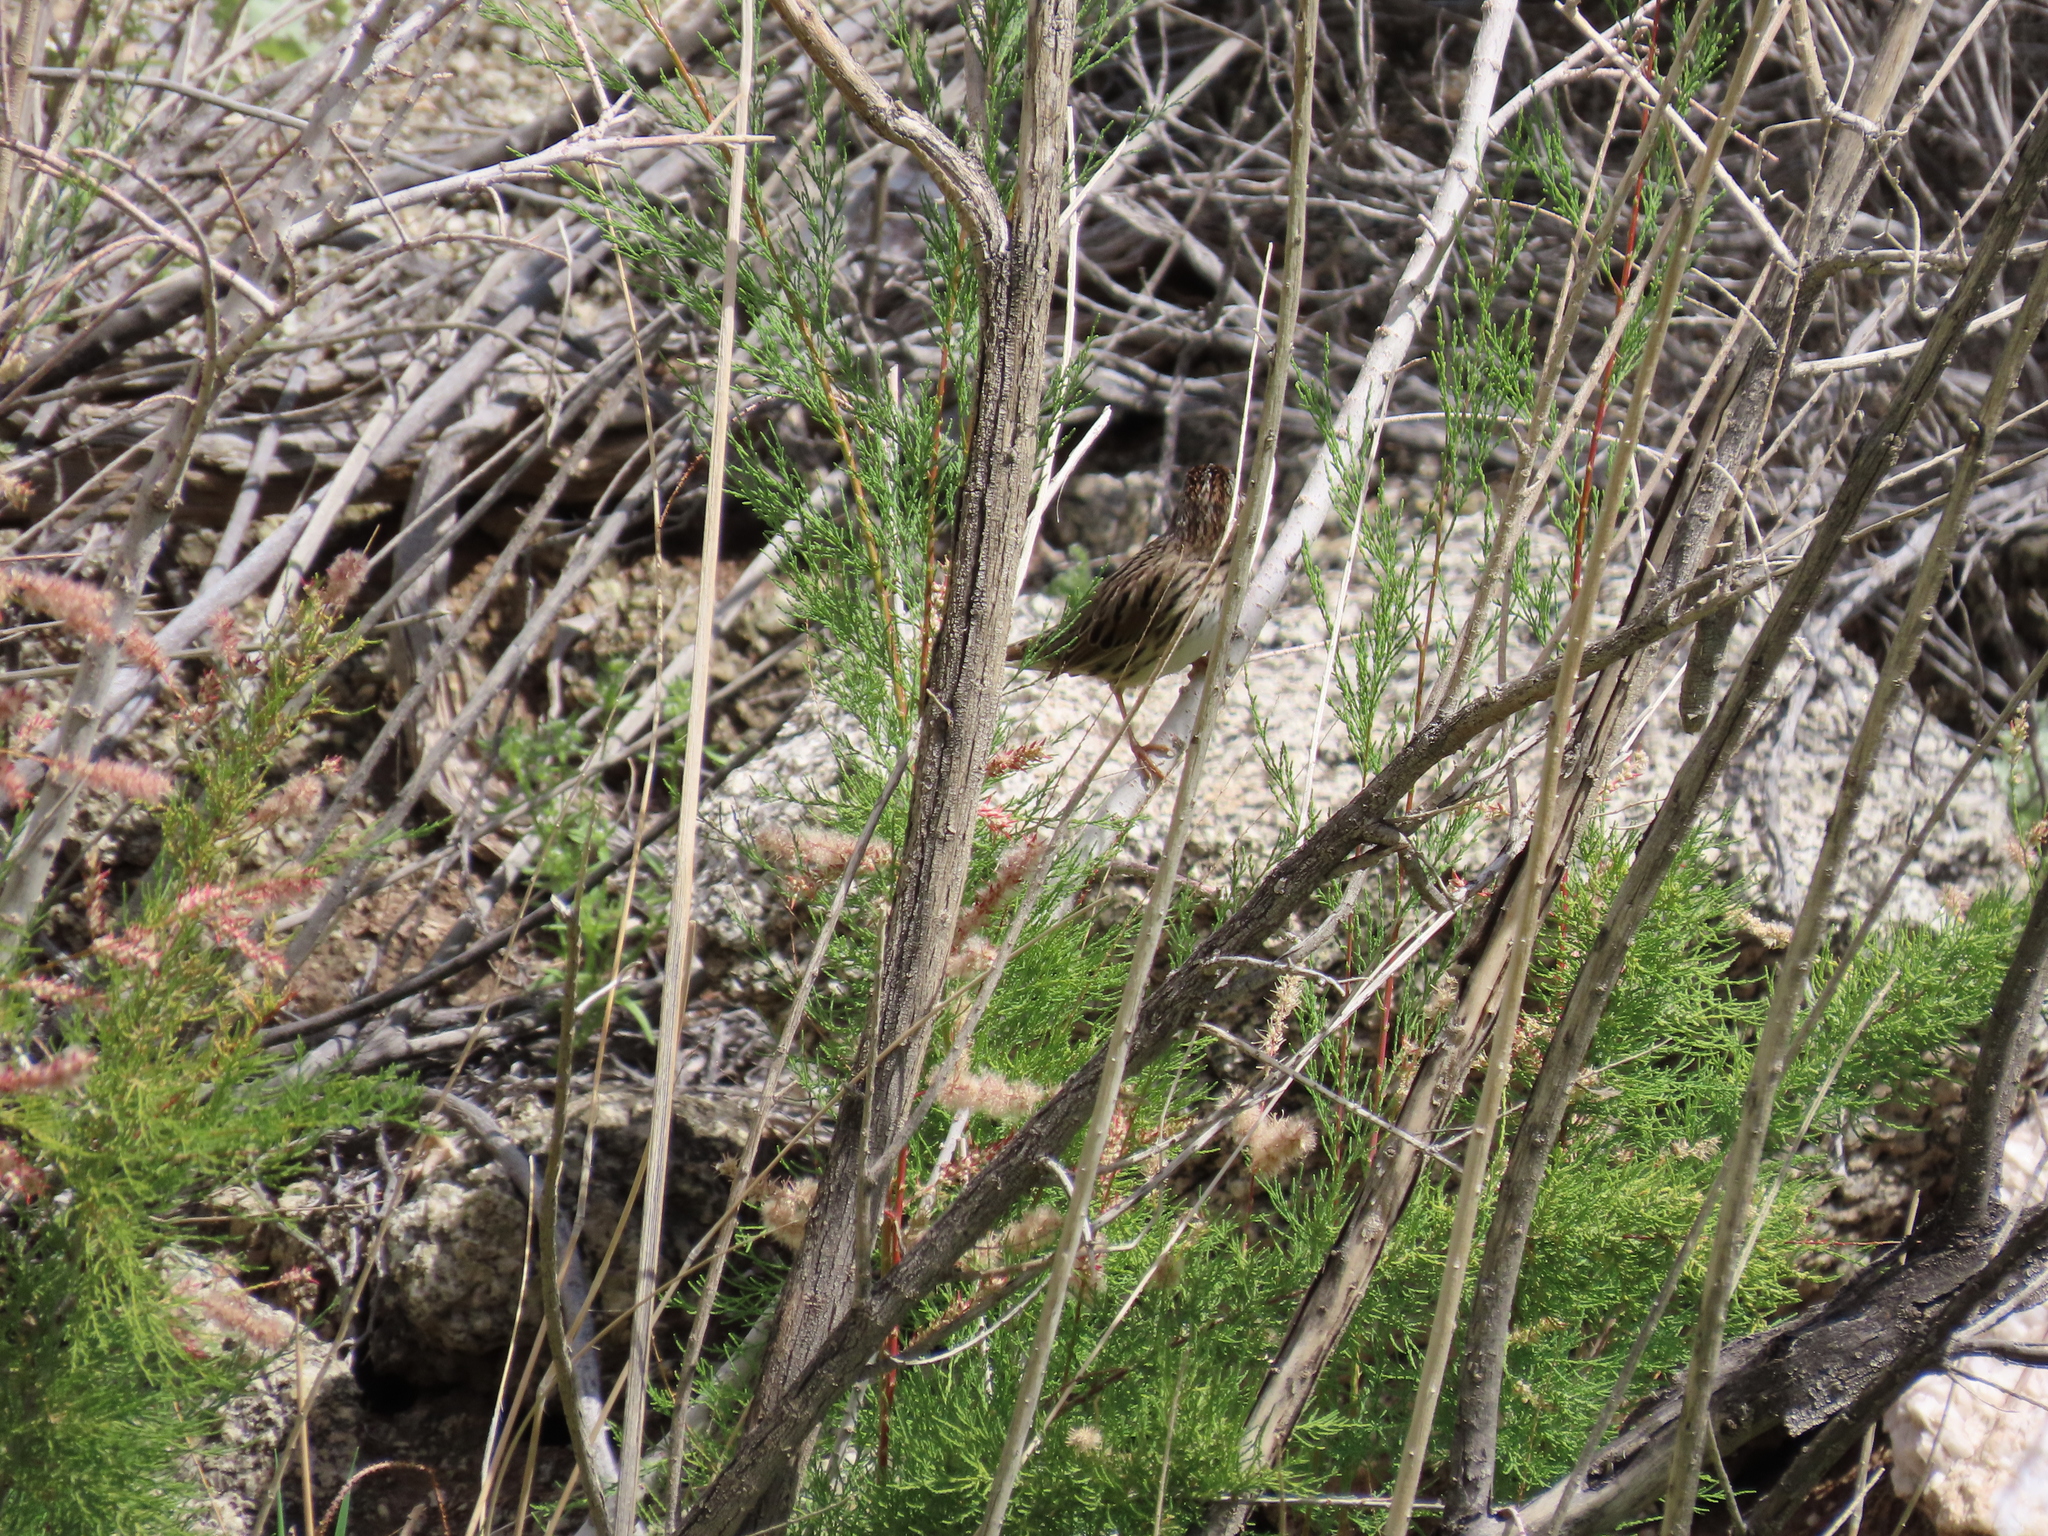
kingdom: Animalia
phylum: Chordata
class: Aves
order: Passeriformes
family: Passerellidae
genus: Melospiza
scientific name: Melospiza lincolnii
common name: Lincoln's sparrow
